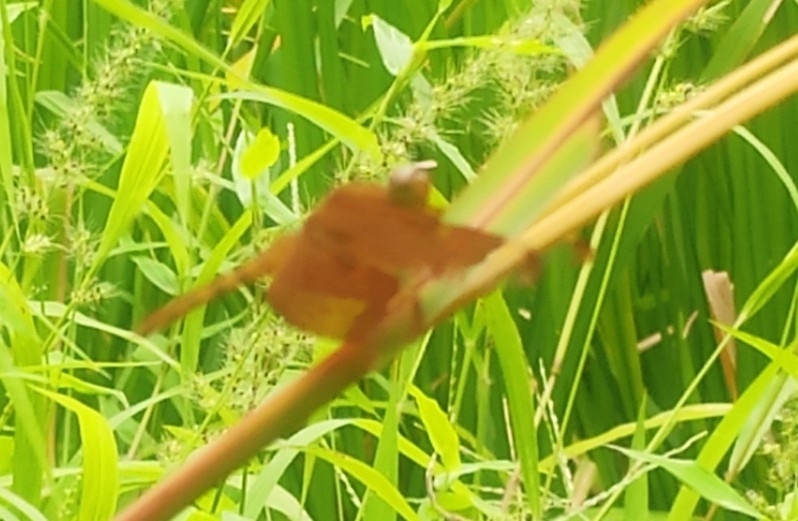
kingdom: Animalia
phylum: Arthropoda
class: Insecta
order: Odonata
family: Libellulidae
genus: Neurothemis
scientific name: Neurothemis fulvia
